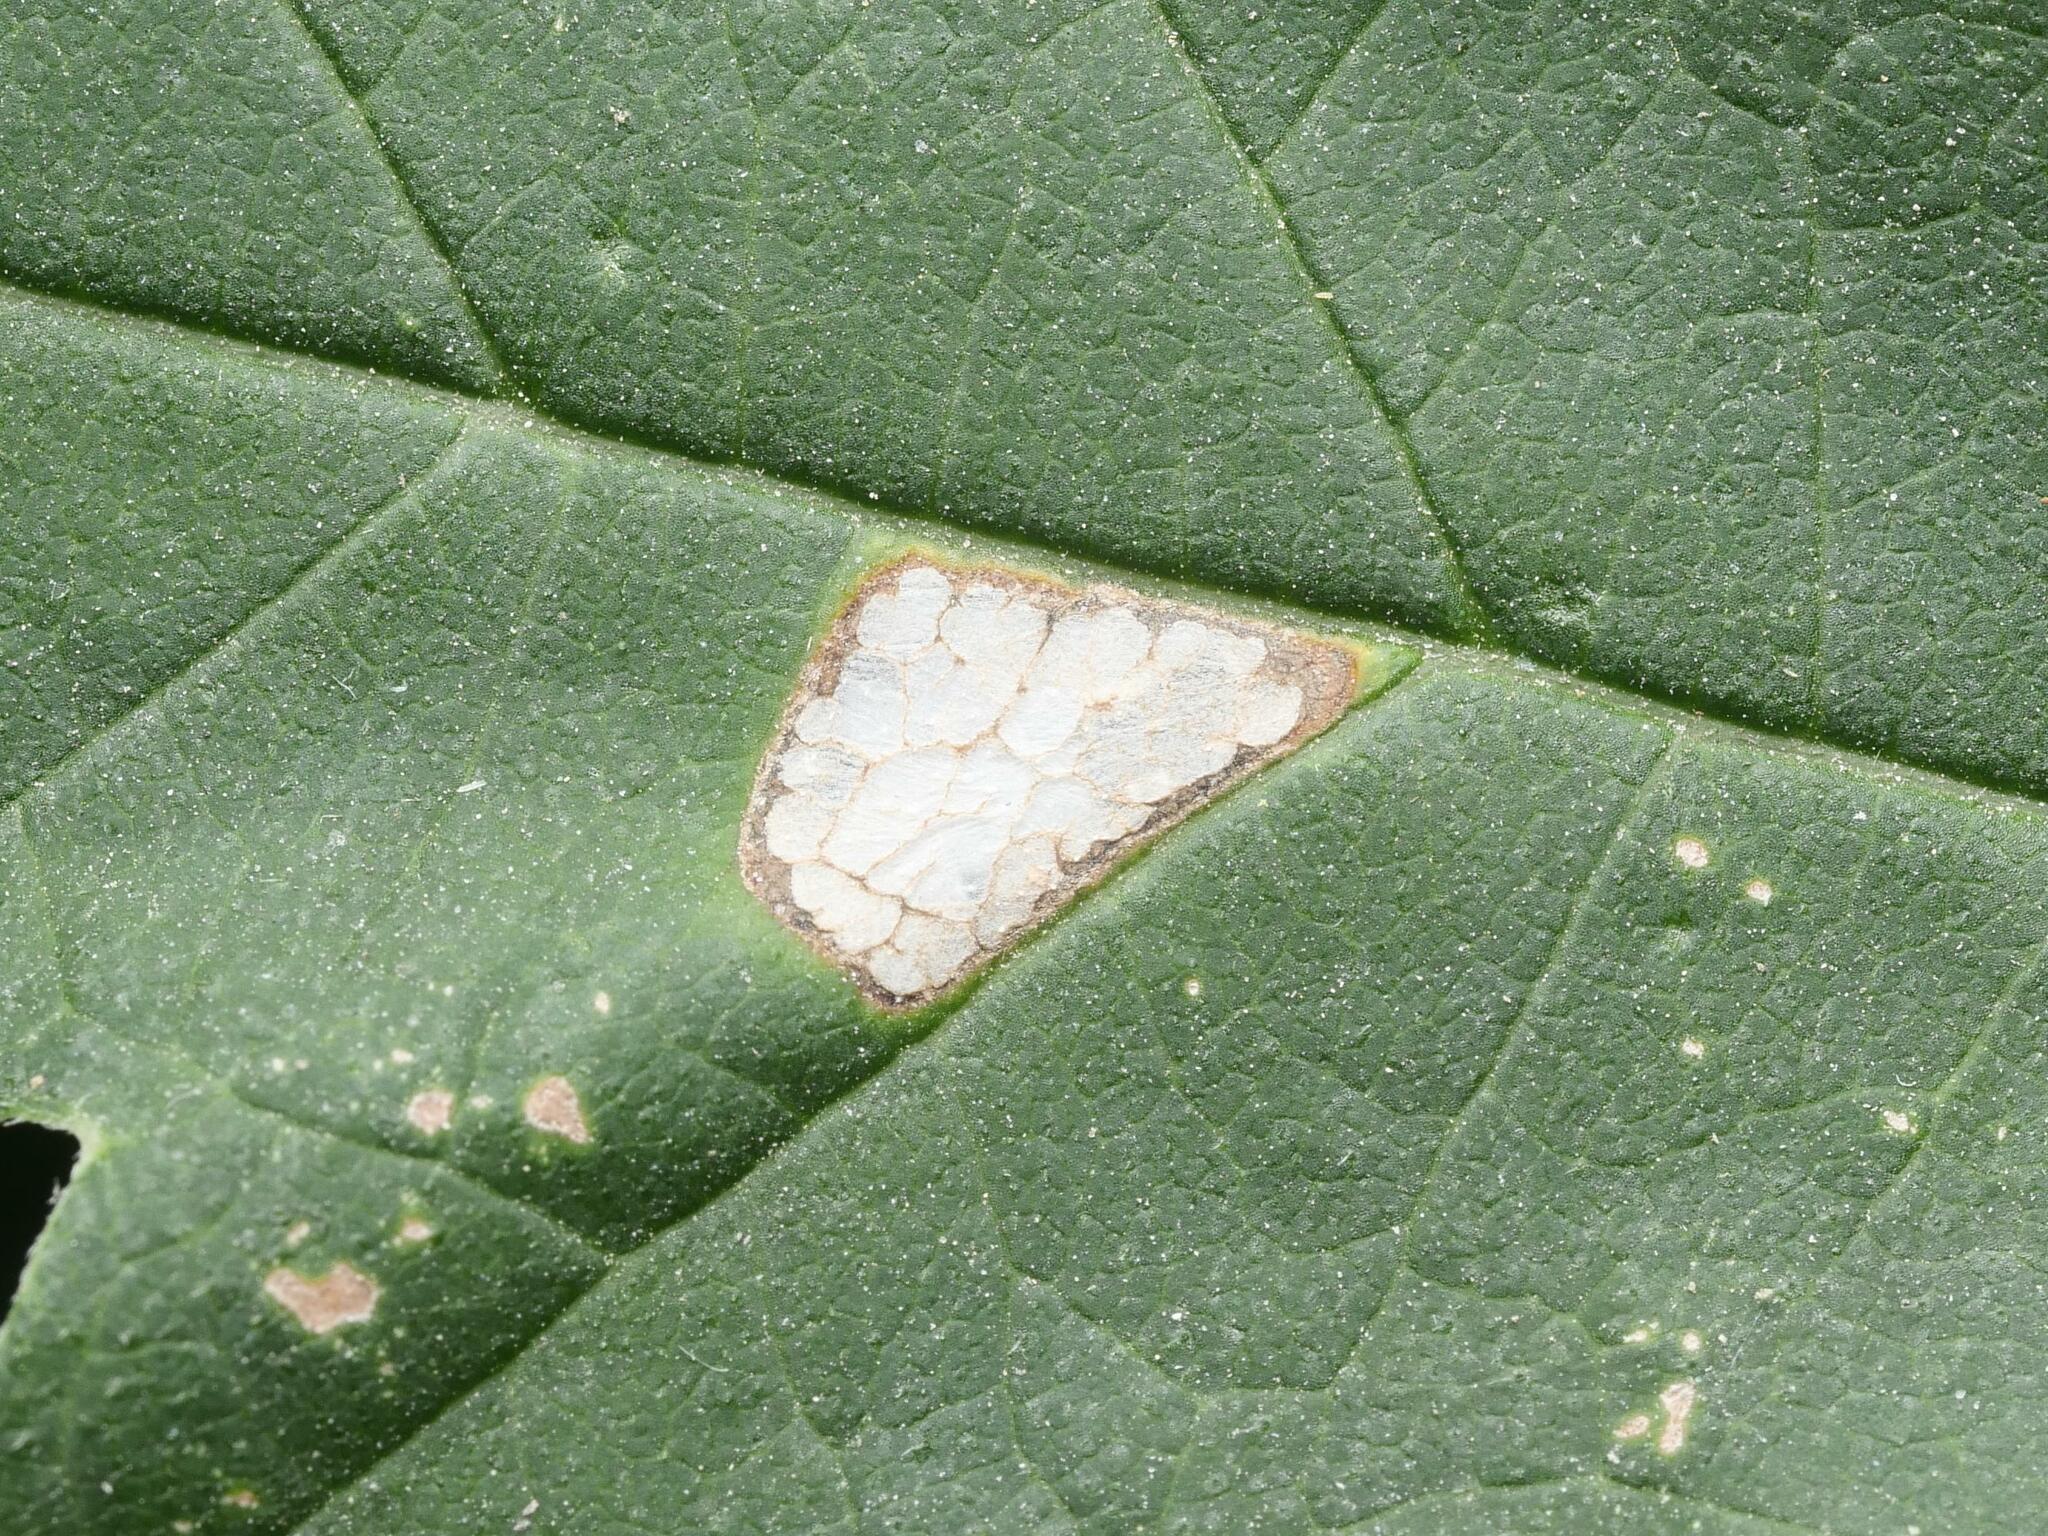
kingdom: Animalia
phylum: Arthropoda
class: Insecta
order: Lepidoptera
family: Gracillariidae
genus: Caloptilia
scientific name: Caloptilia fidella
